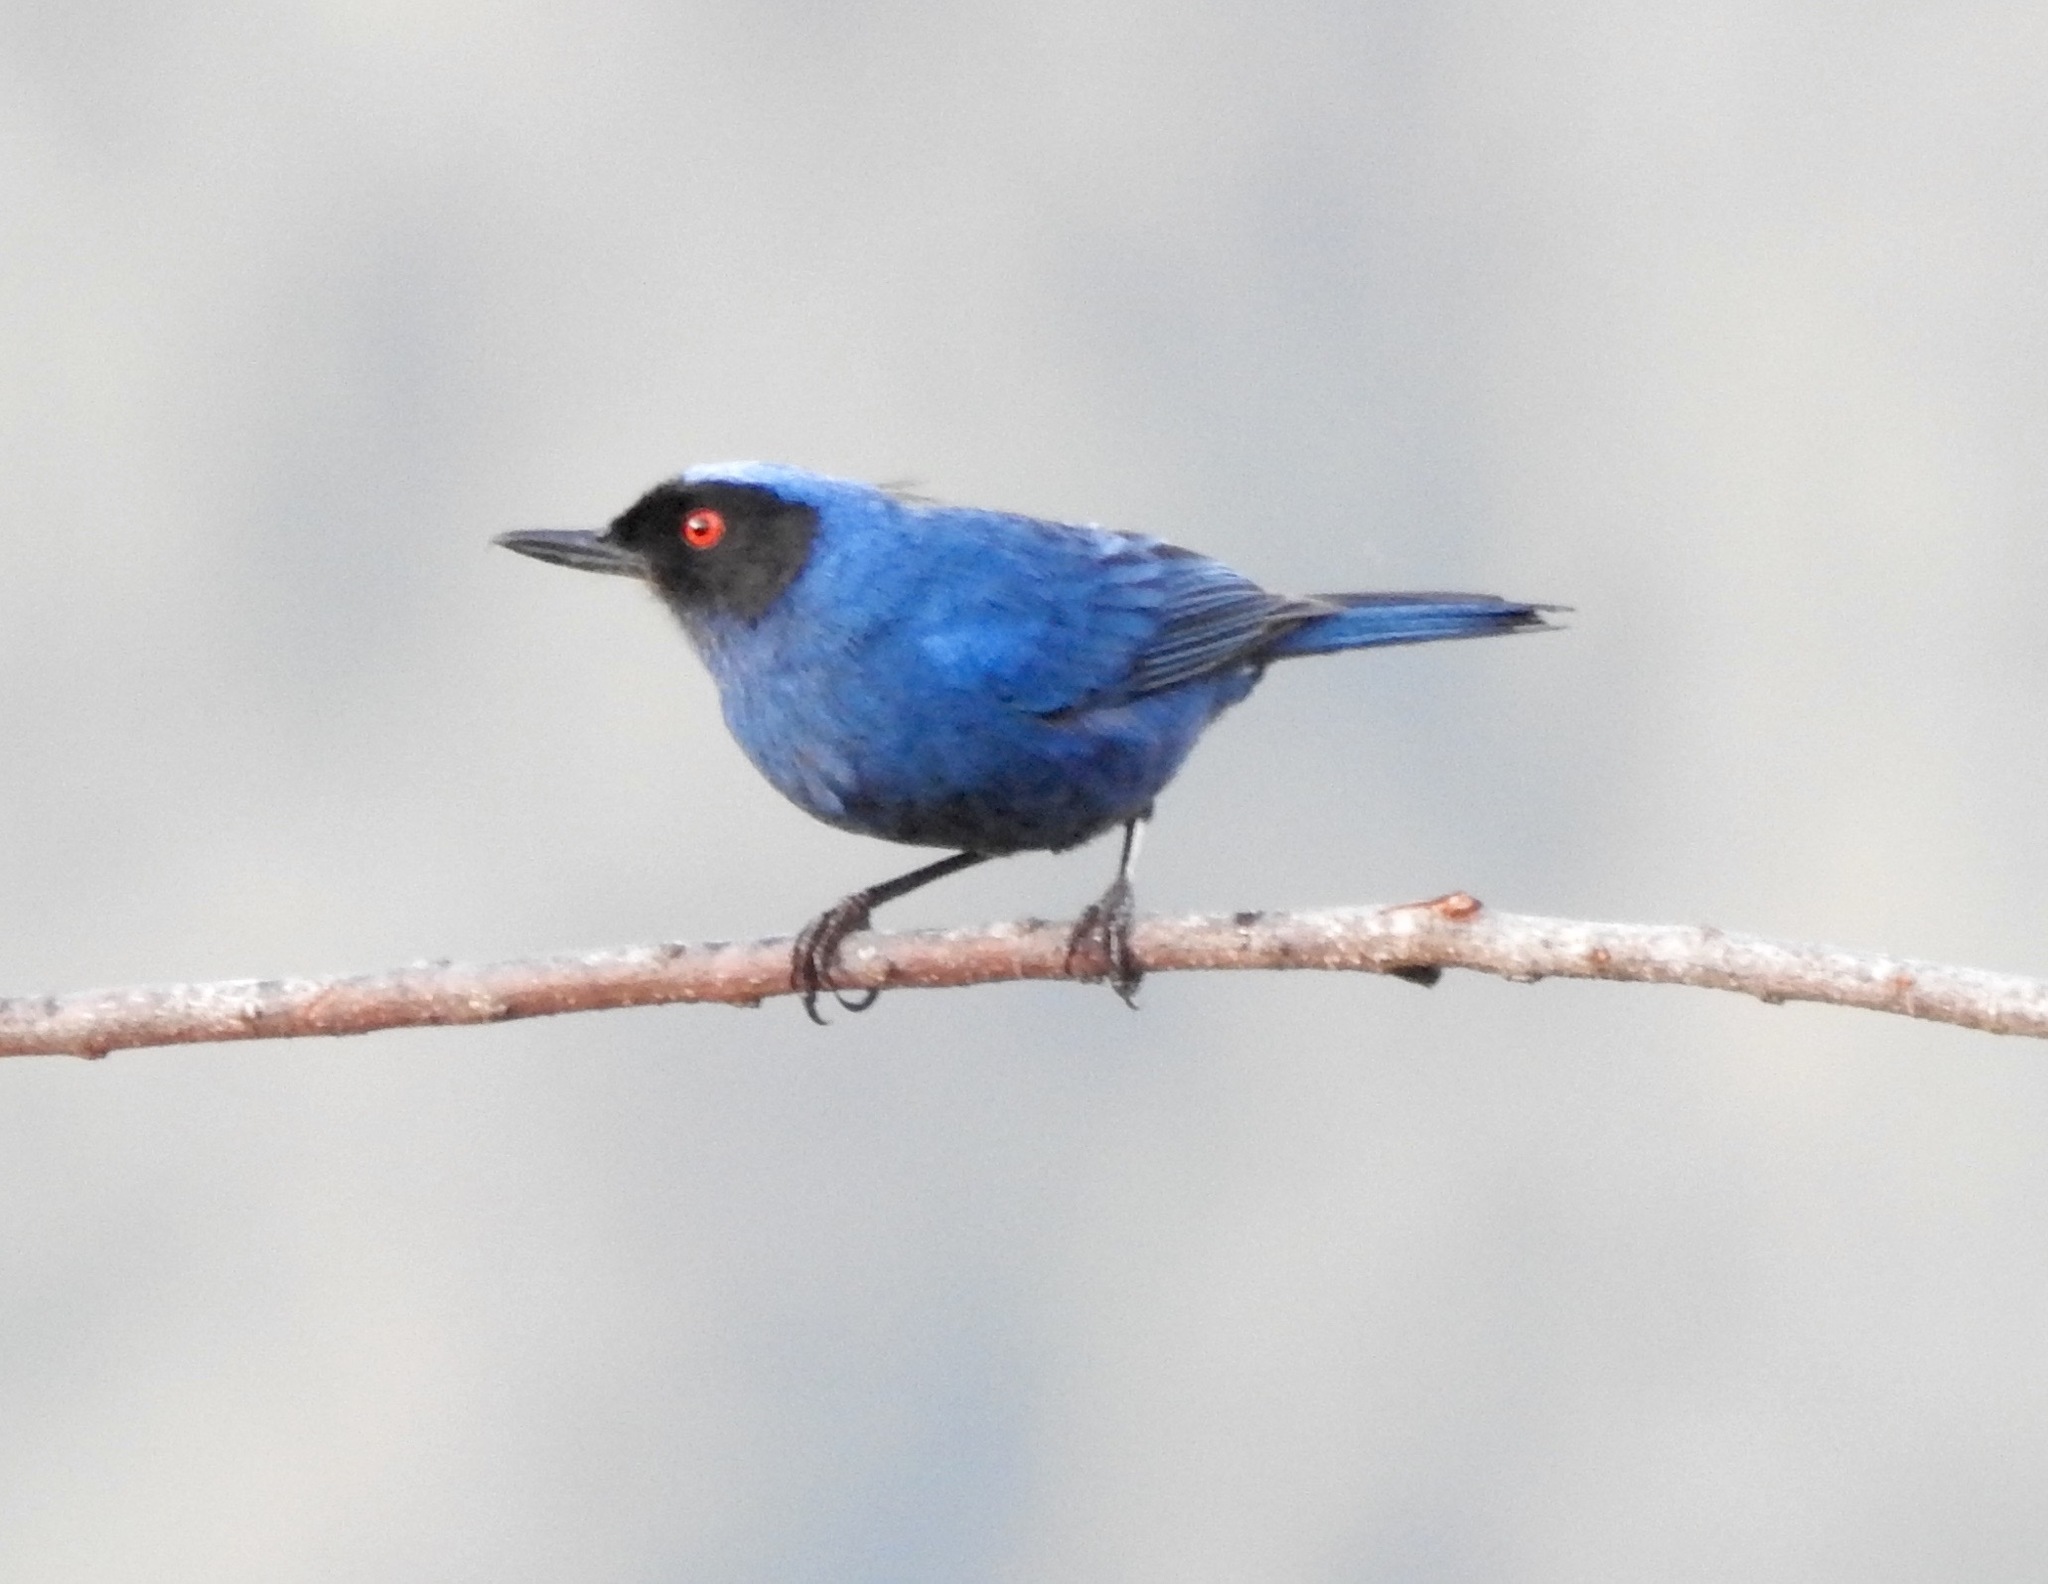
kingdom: Animalia
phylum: Chordata
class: Aves
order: Passeriformes
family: Thraupidae
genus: Diglossa
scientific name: Diglossa cyanea
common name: Masked flowerpiercer
